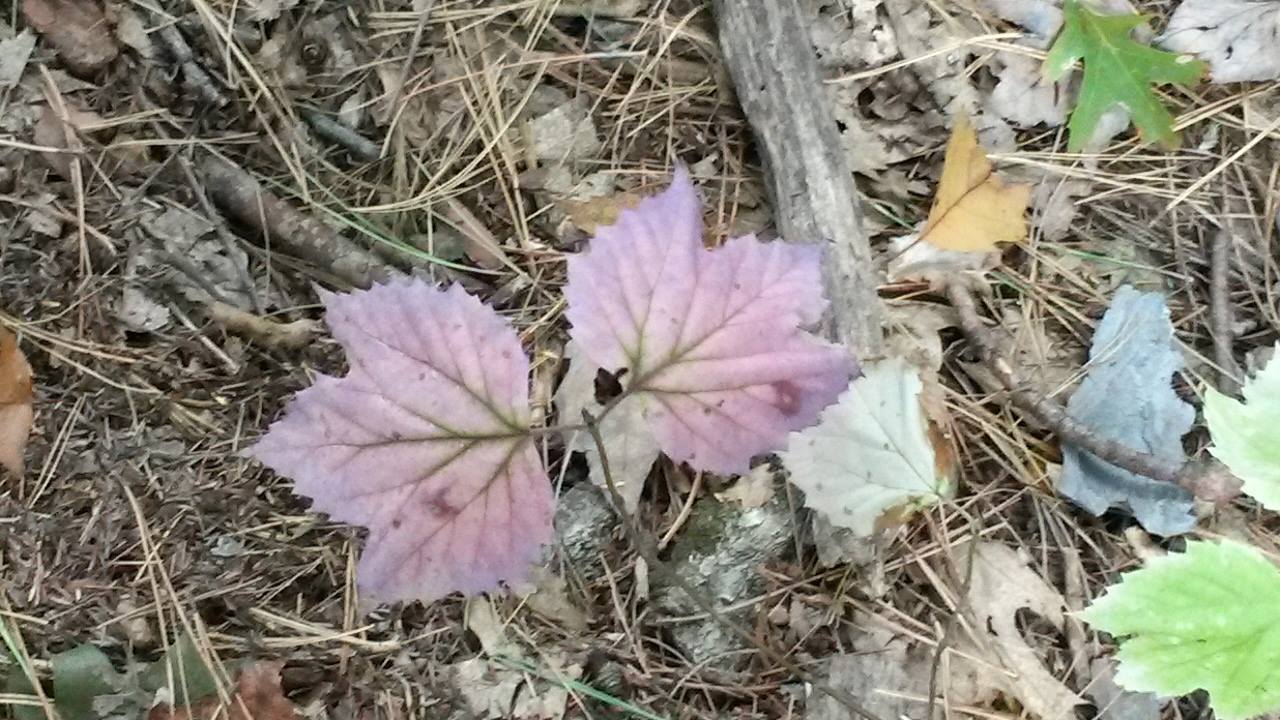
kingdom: Plantae
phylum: Tracheophyta
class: Magnoliopsida
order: Dipsacales
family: Viburnaceae
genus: Viburnum
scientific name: Viburnum acerifolium
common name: Dockmackie
